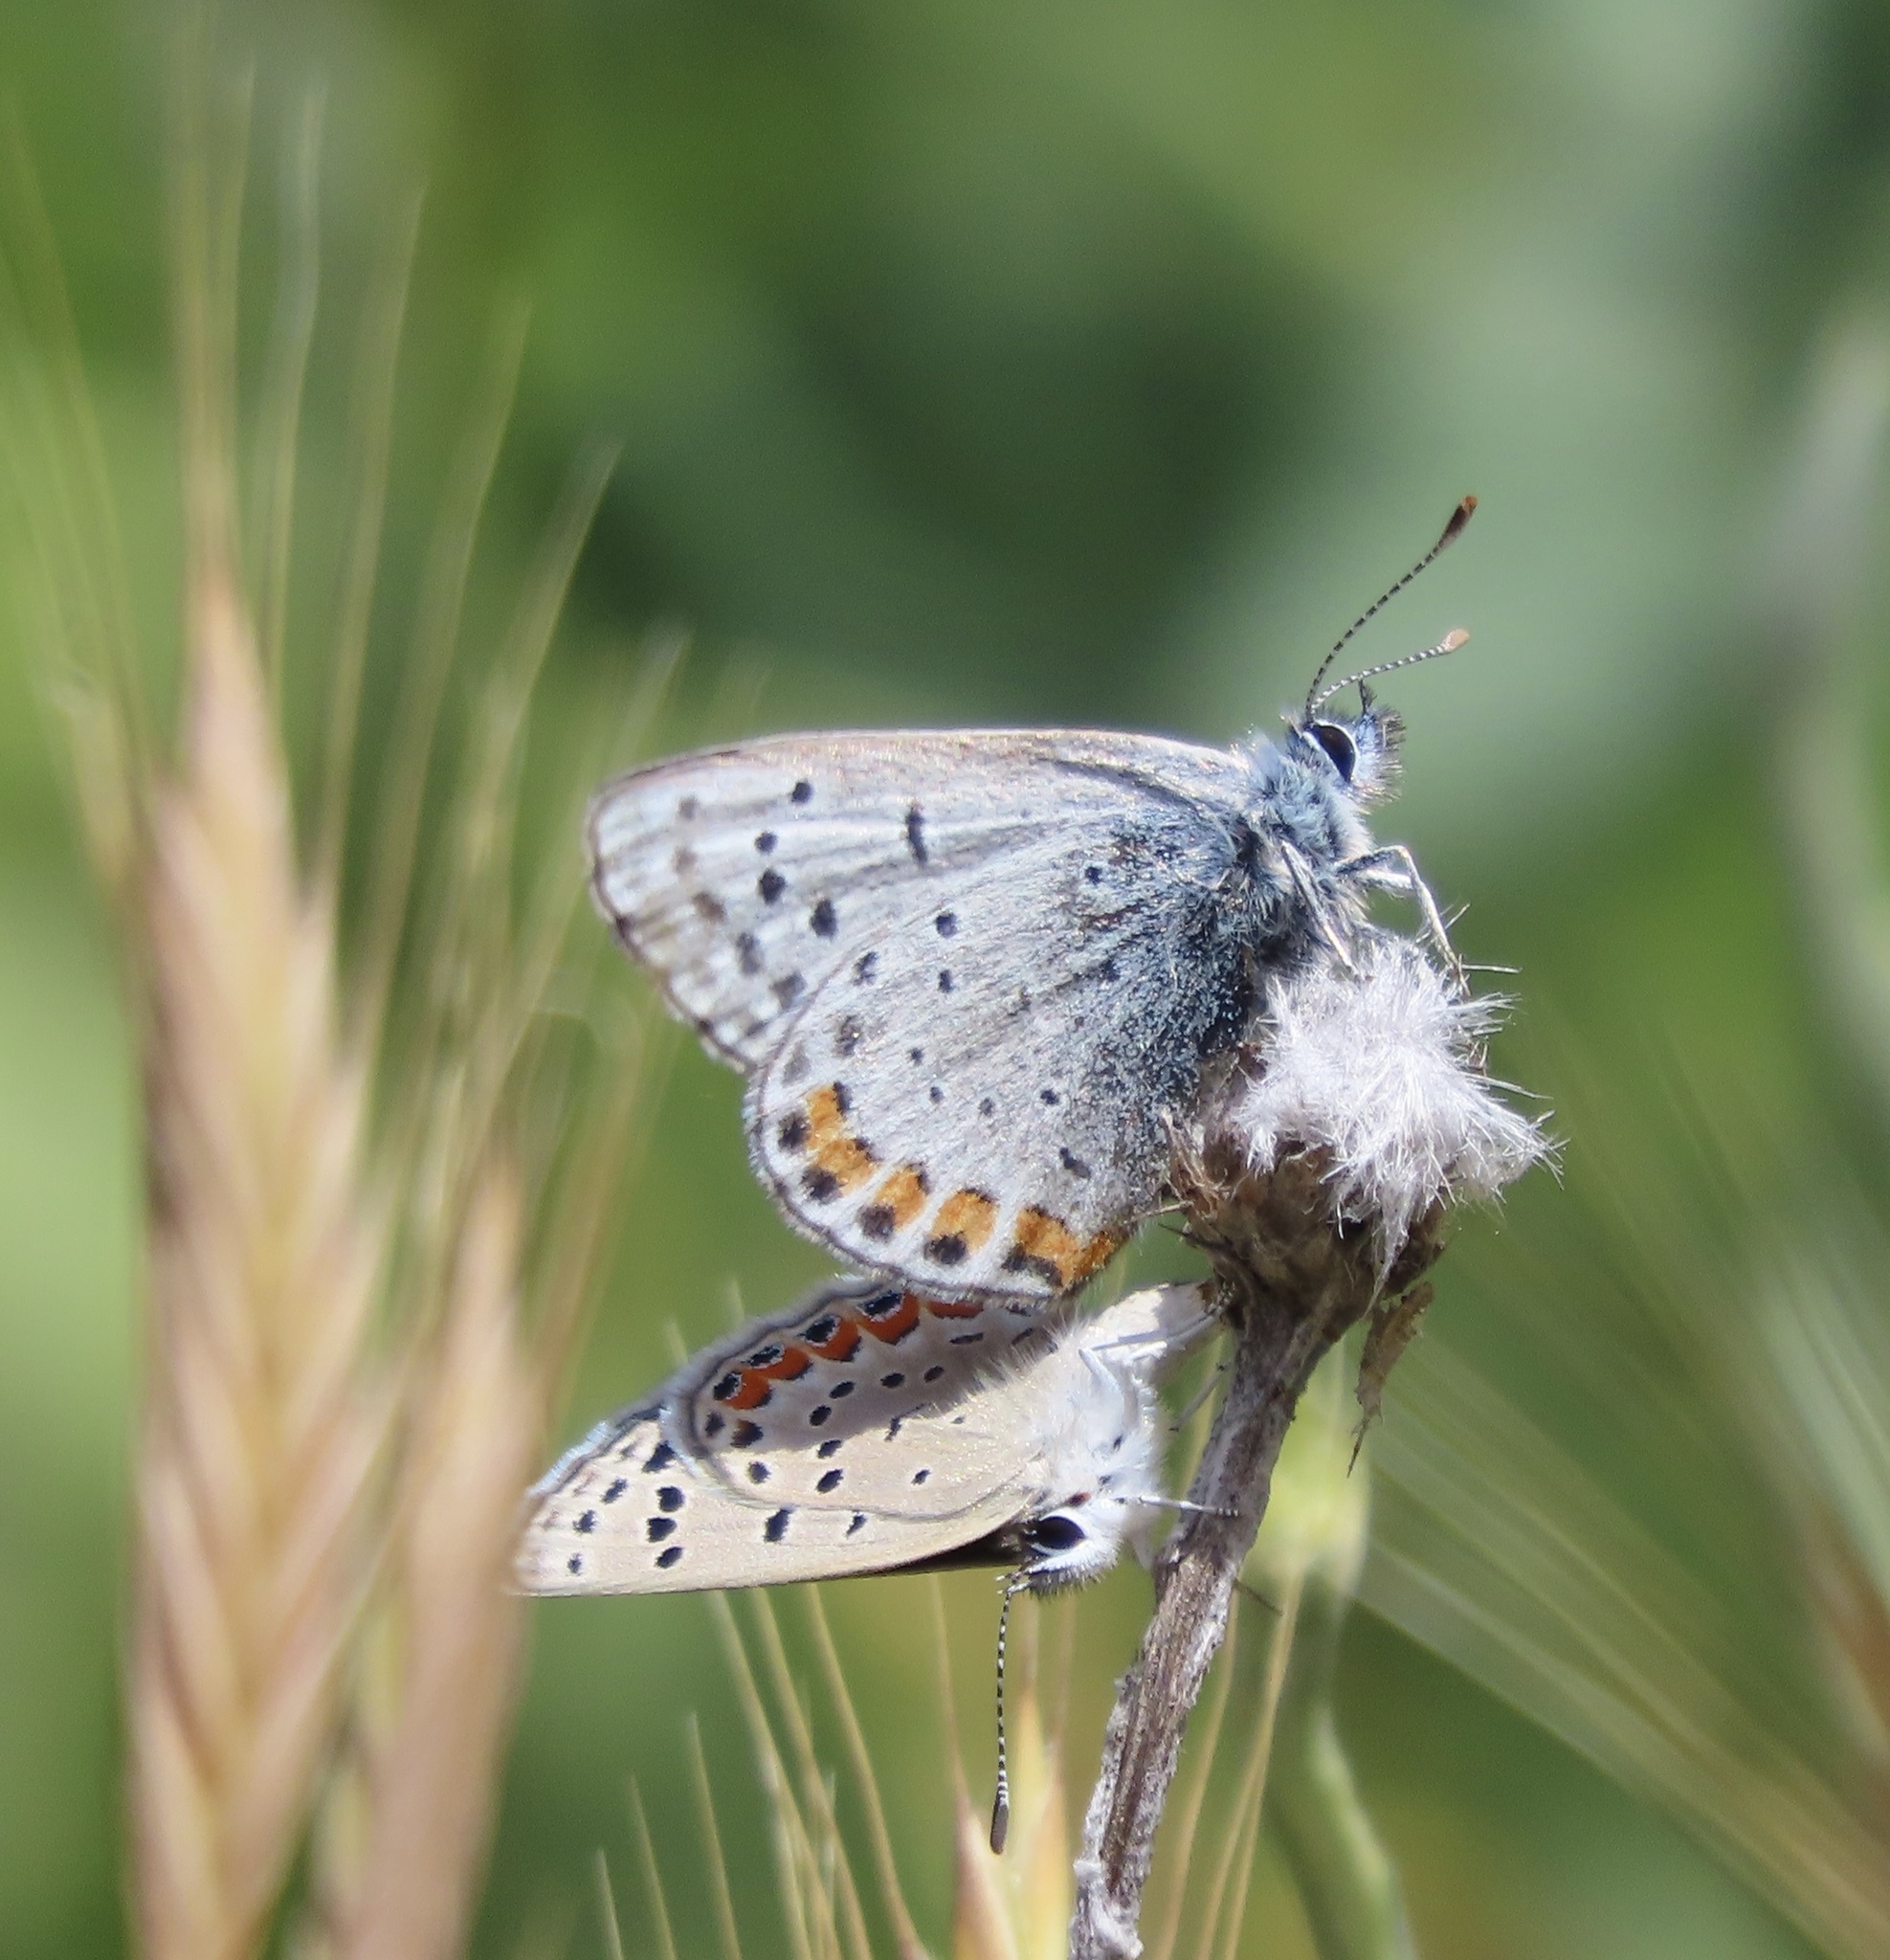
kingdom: Animalia
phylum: Arthropoda
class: Insecta
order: Lepidoptera
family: Lycaenidae
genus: Icaricia
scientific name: Icaricia acmon
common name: Acmon blue
